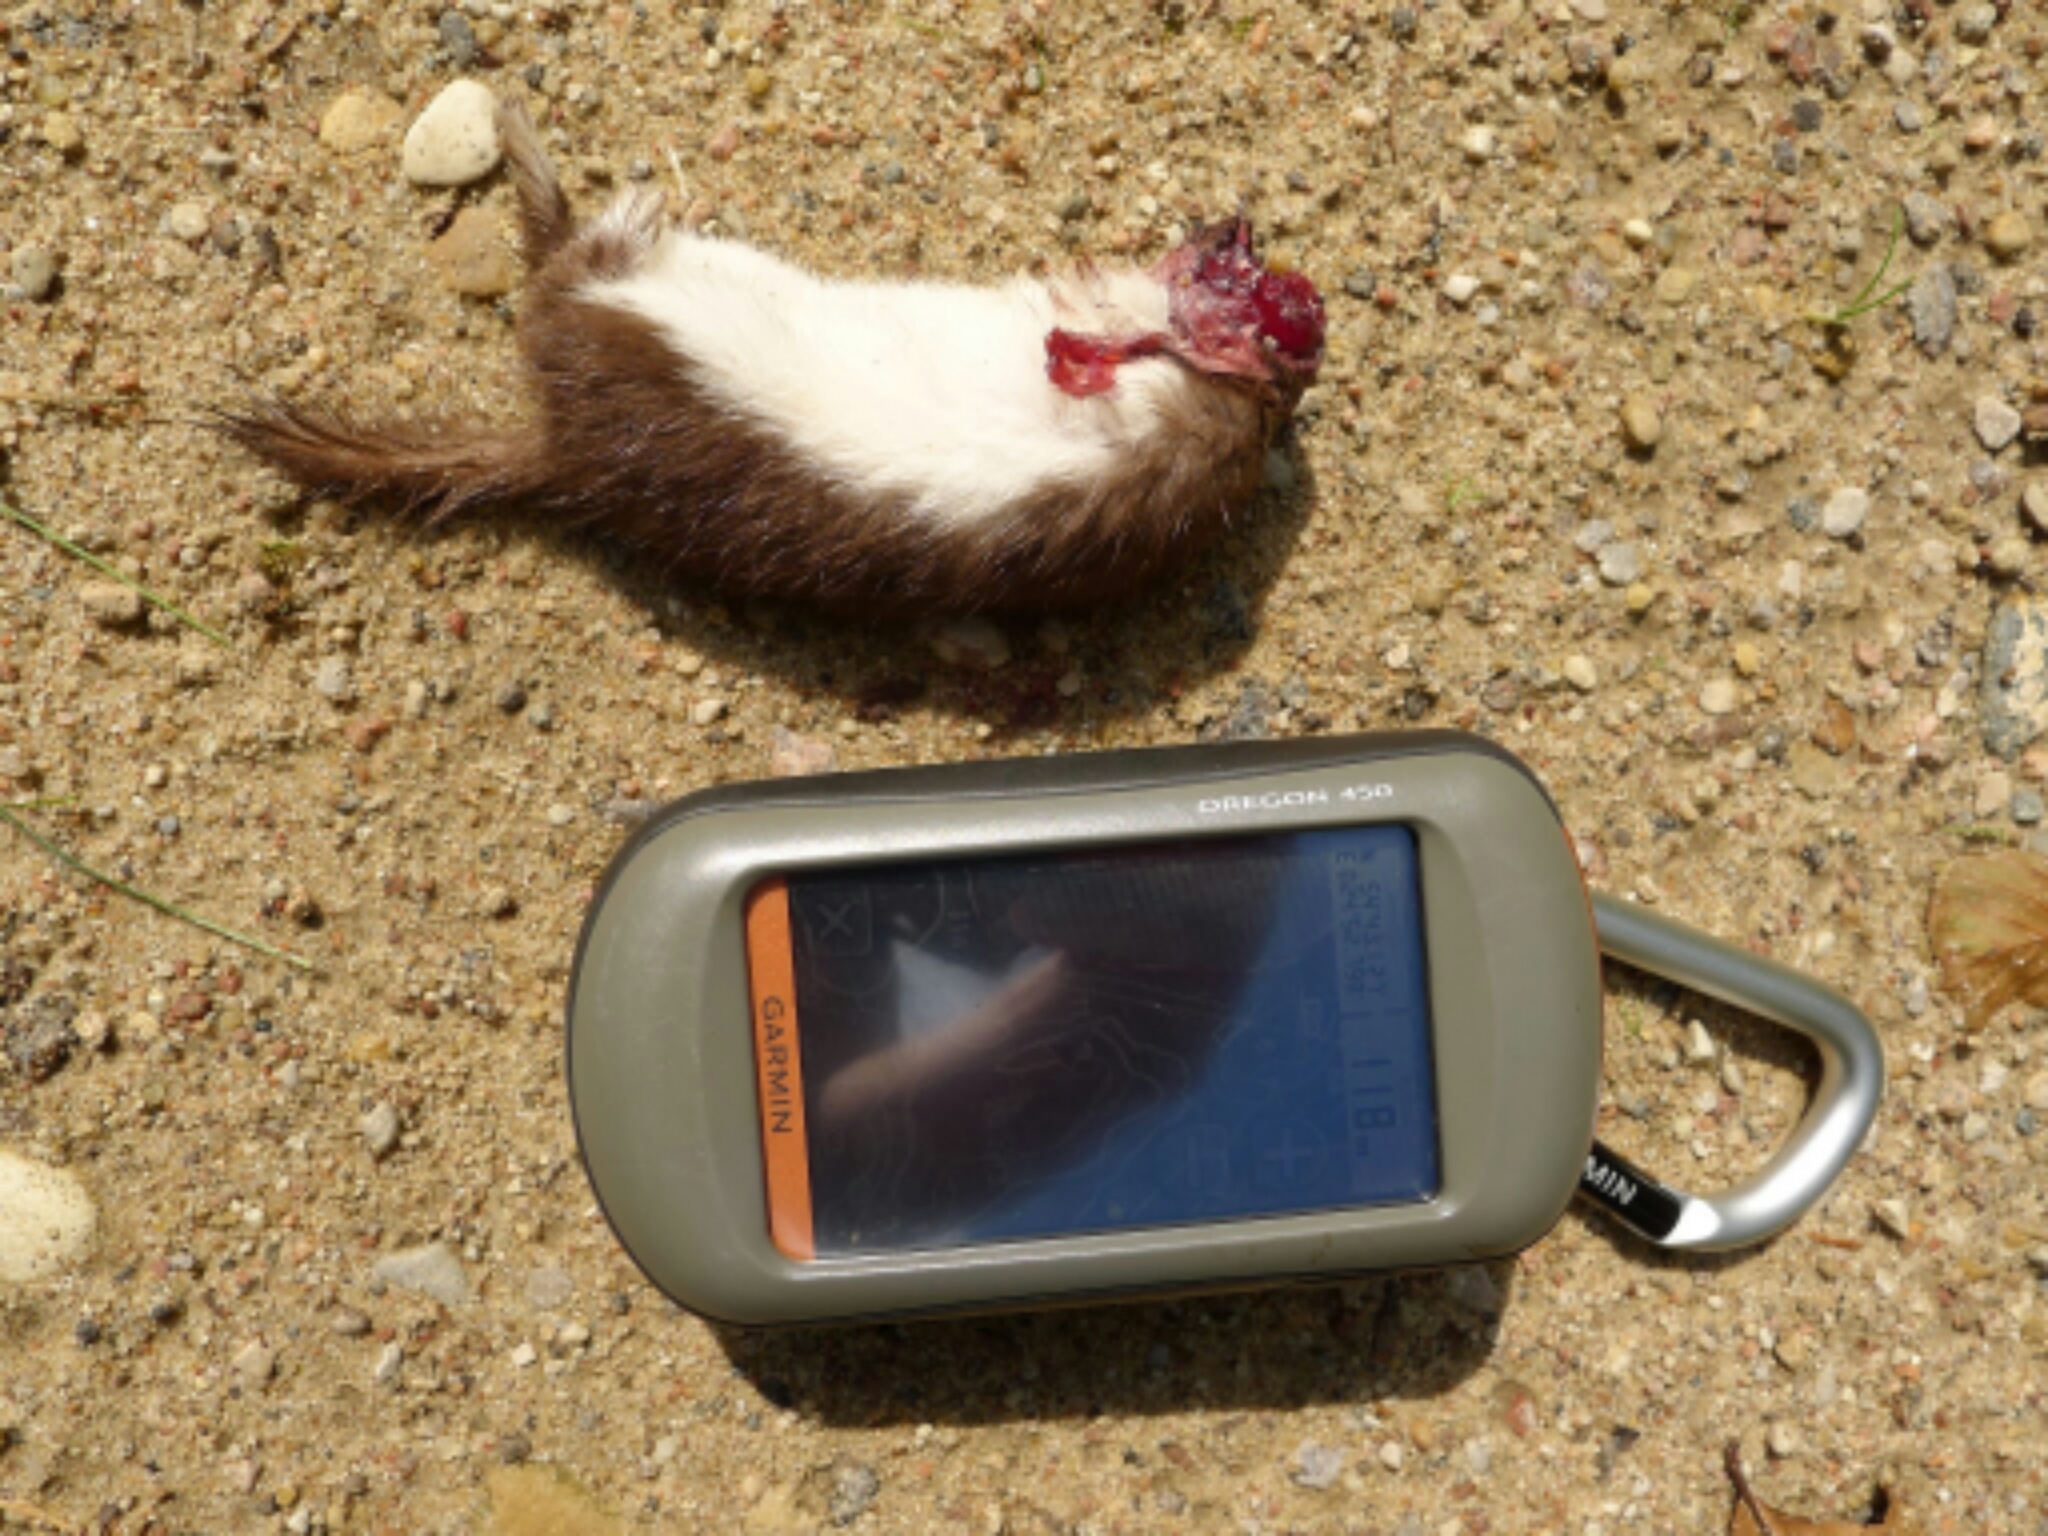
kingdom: Animalia
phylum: Chordata
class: Mammalia
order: Carnivora
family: Mustelidae
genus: Mustela
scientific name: Mustela nivalis
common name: Least weasel
